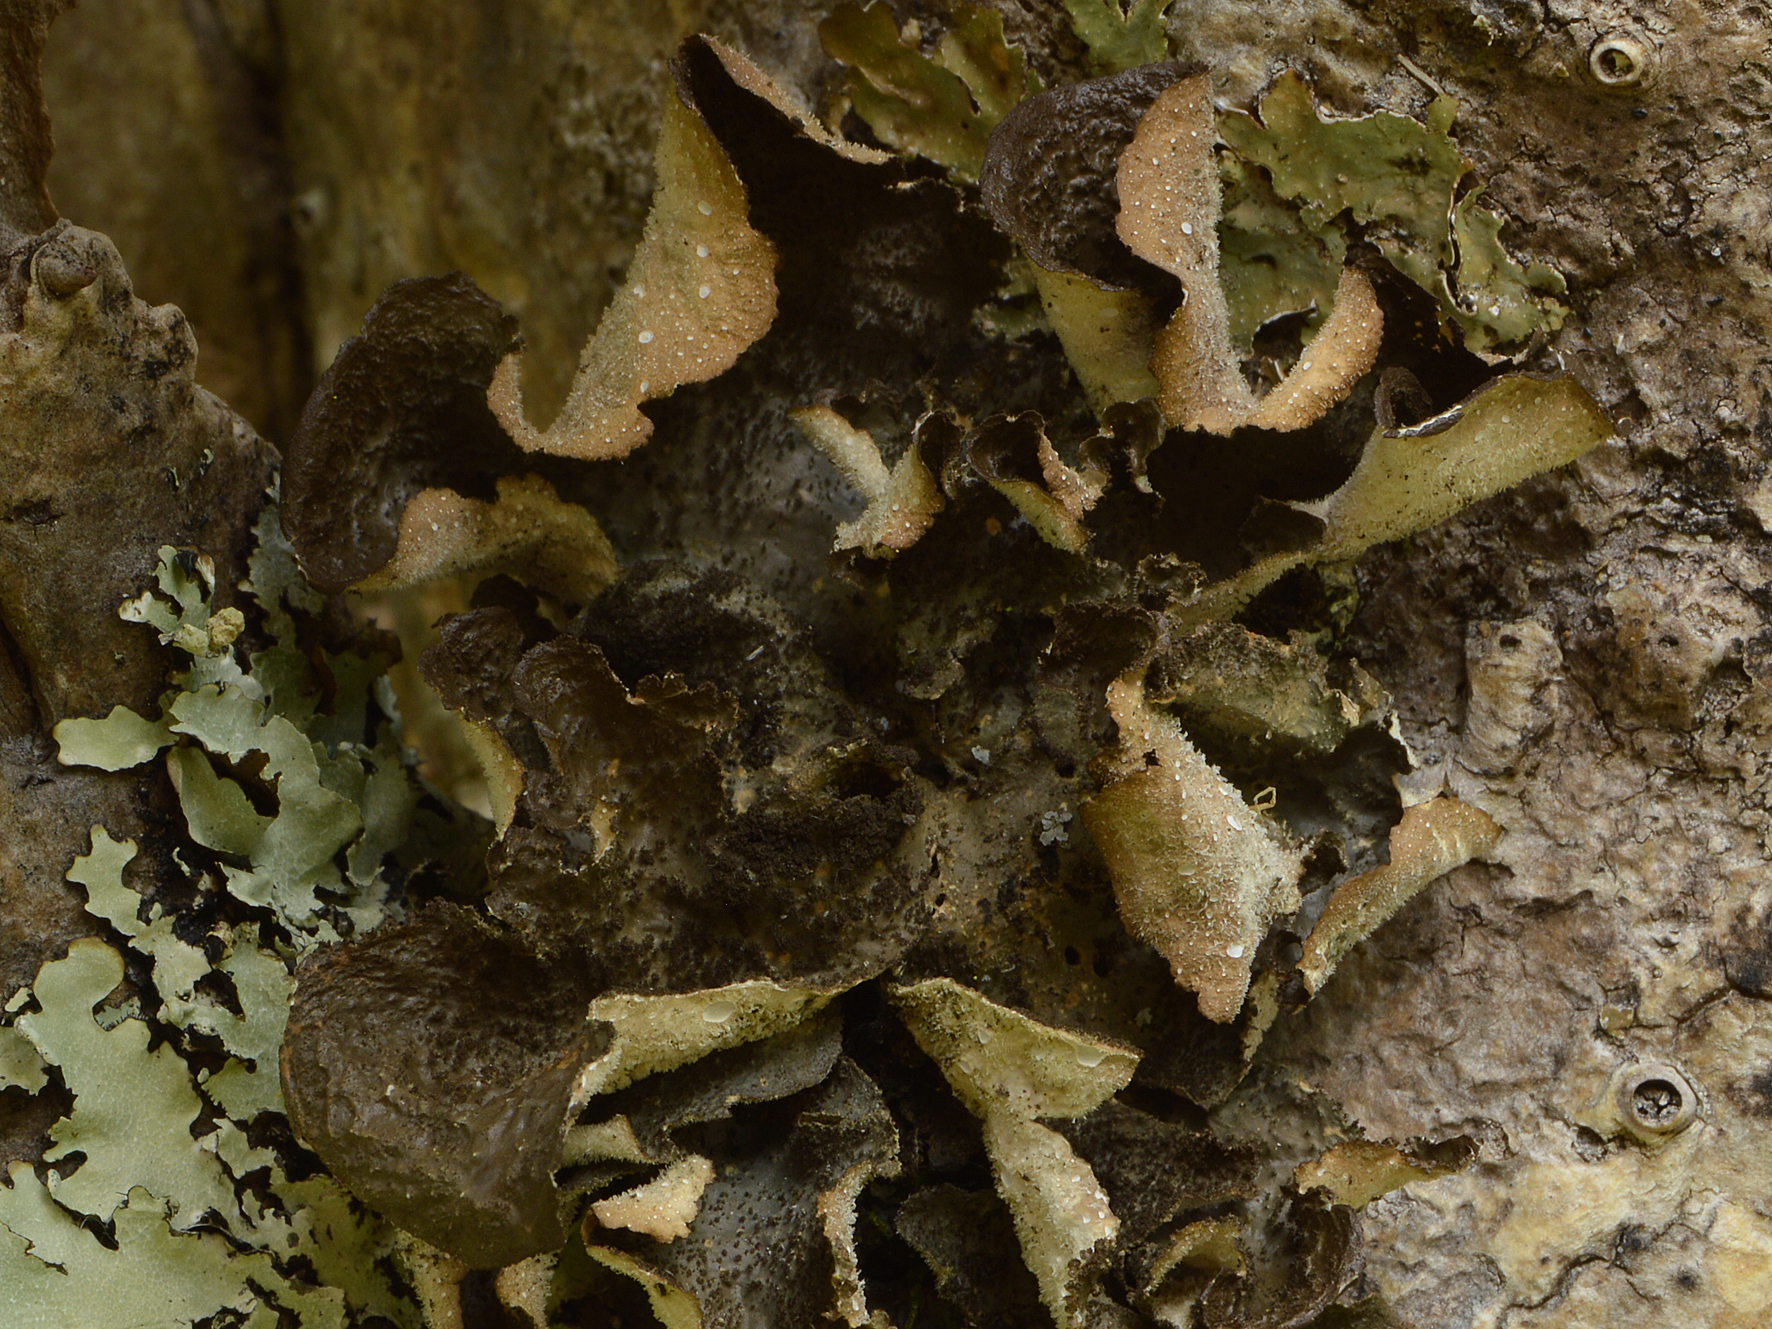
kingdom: Fungi
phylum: Ascomycota
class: Lecanoromycetes
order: Peltigerales
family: Lobariaceae
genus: Sticta
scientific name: Sticta fuliginosa
